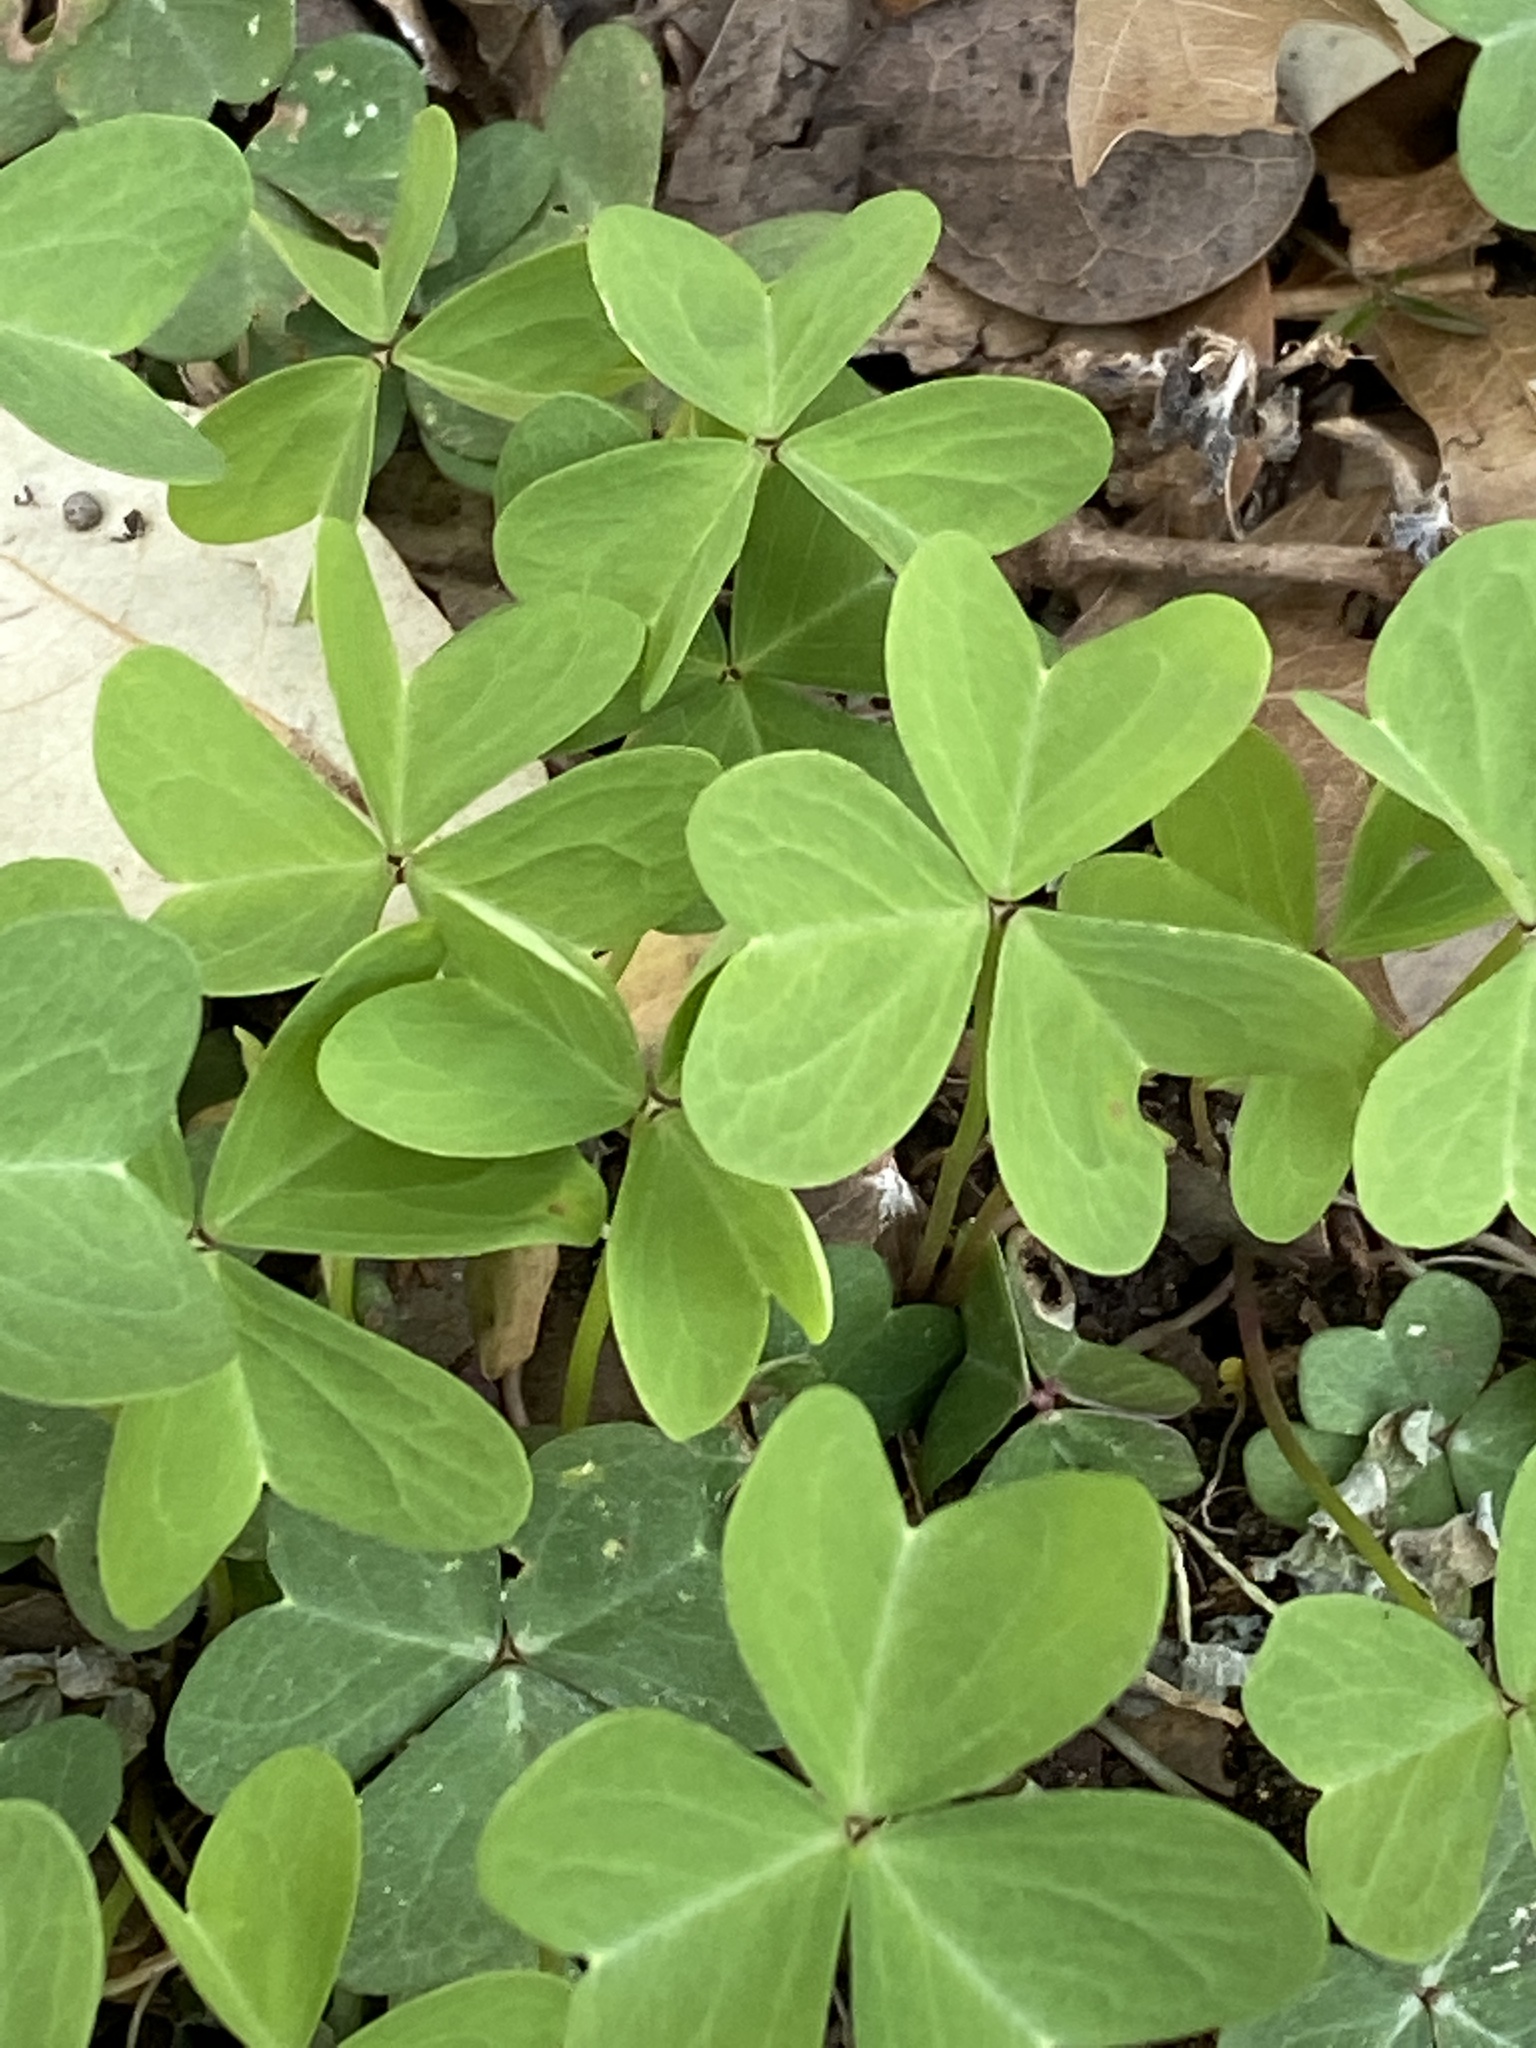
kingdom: Plantae
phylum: Tracheophyta
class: Magnoliopsida
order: Oxalidales
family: Oxalidaceae
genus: Oxalis
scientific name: Oxalis drummondii
